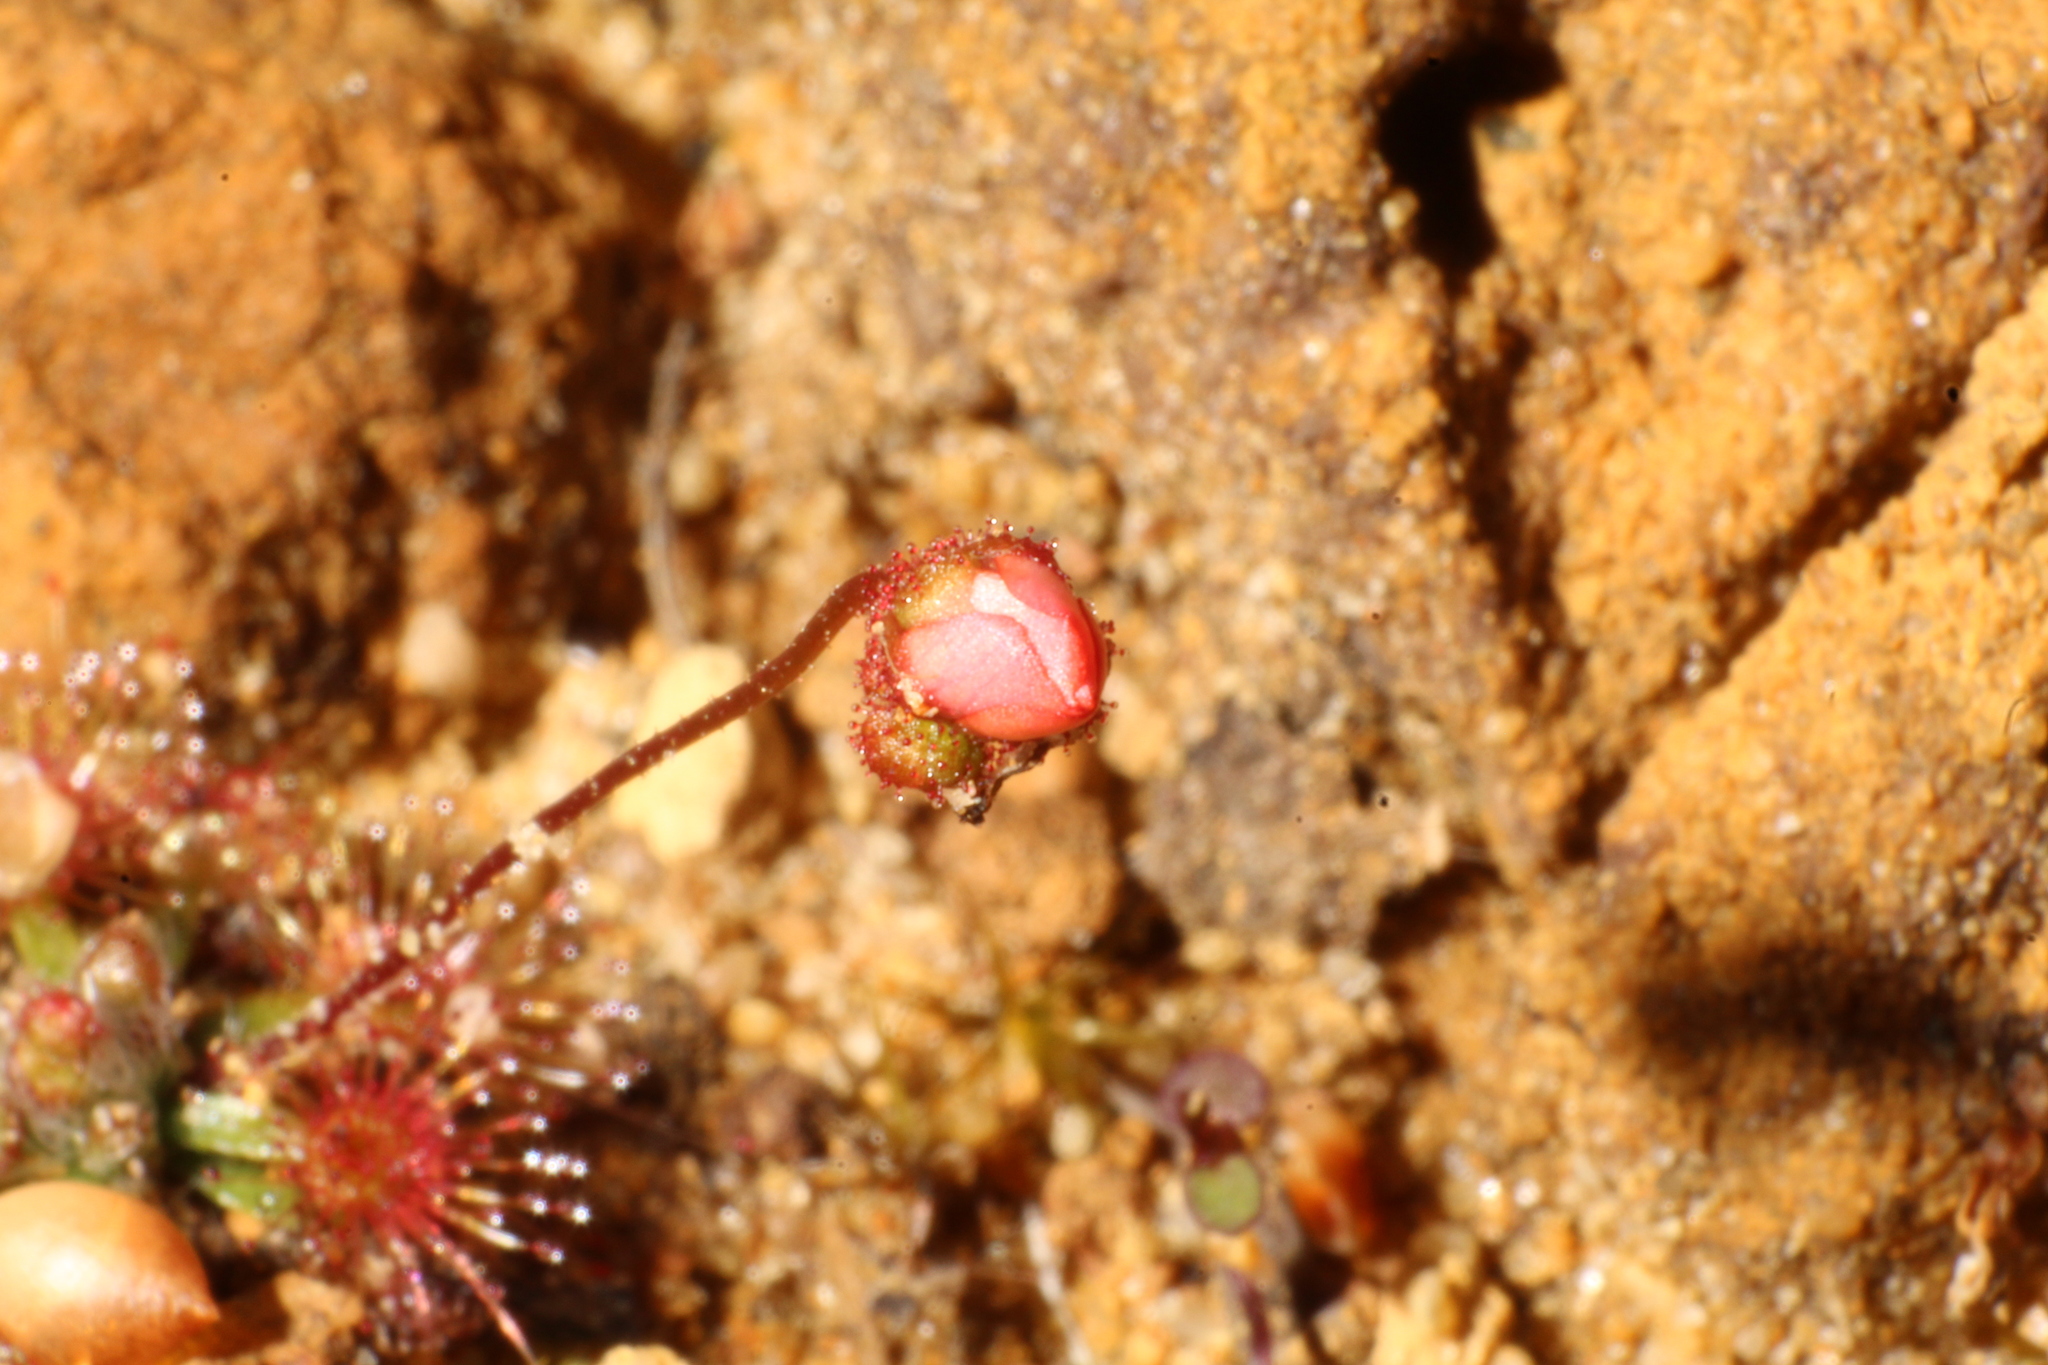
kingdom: Plantae
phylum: Tracheophyta
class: Magnoliopsida
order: Caryophyllales
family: Droseraceae
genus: Drosera
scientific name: Drosera platystigma
